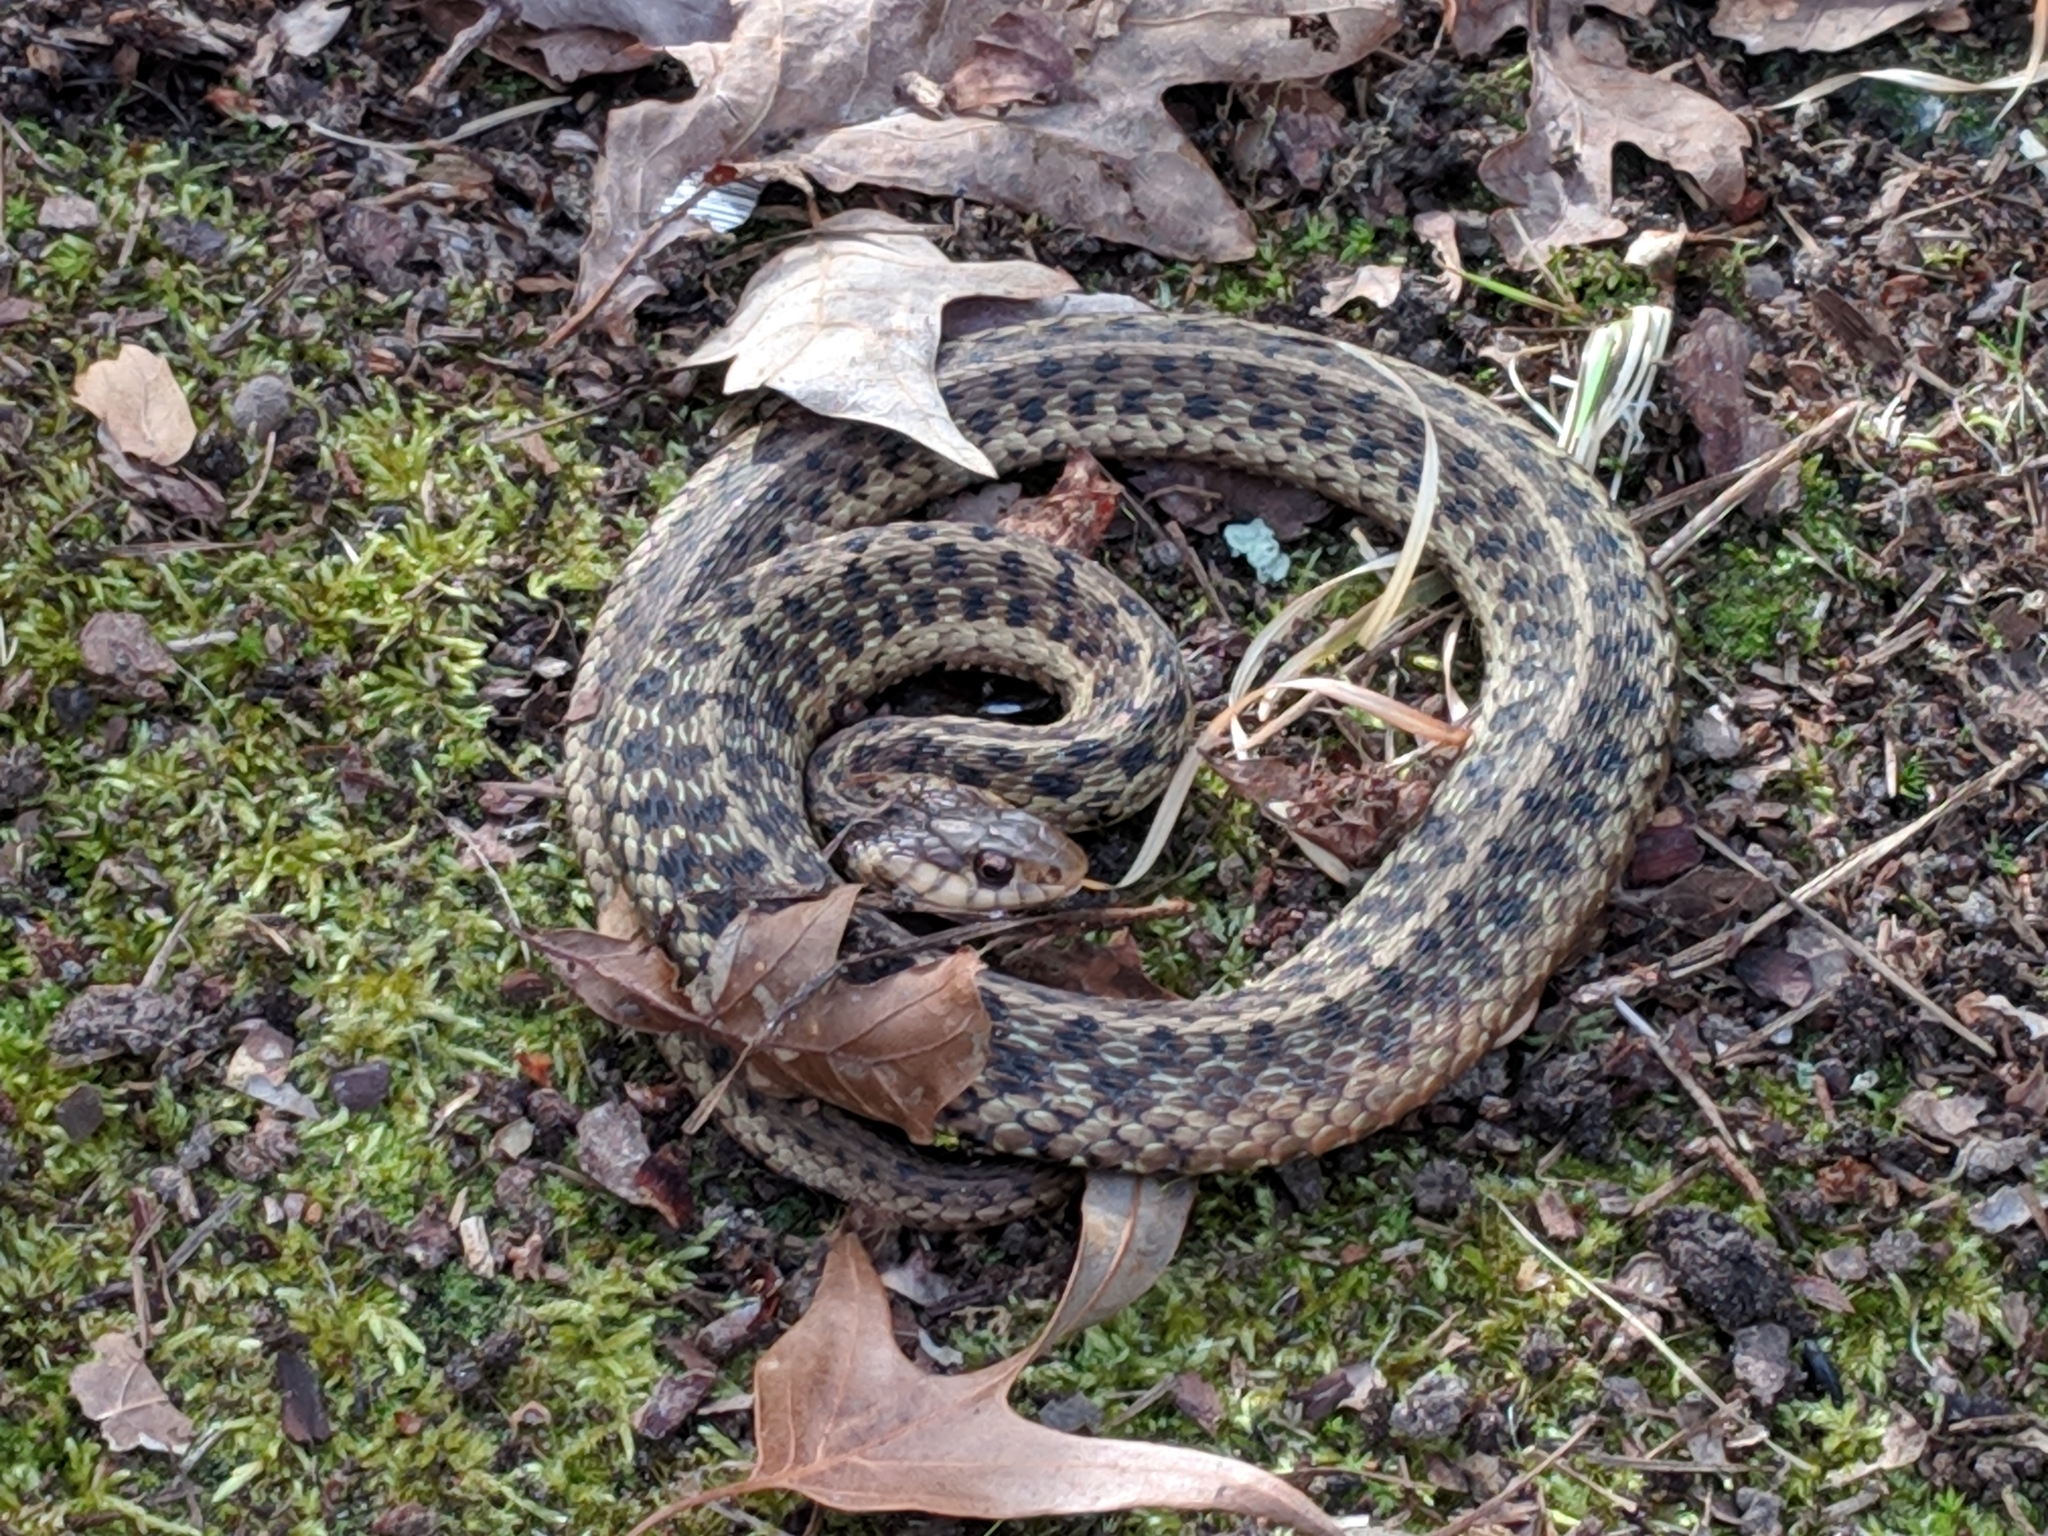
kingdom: Animalia
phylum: Chordata
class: Squamata
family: Colubridae
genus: Thamnophis
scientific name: Thamnophis sirtalis
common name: Common garter snake
